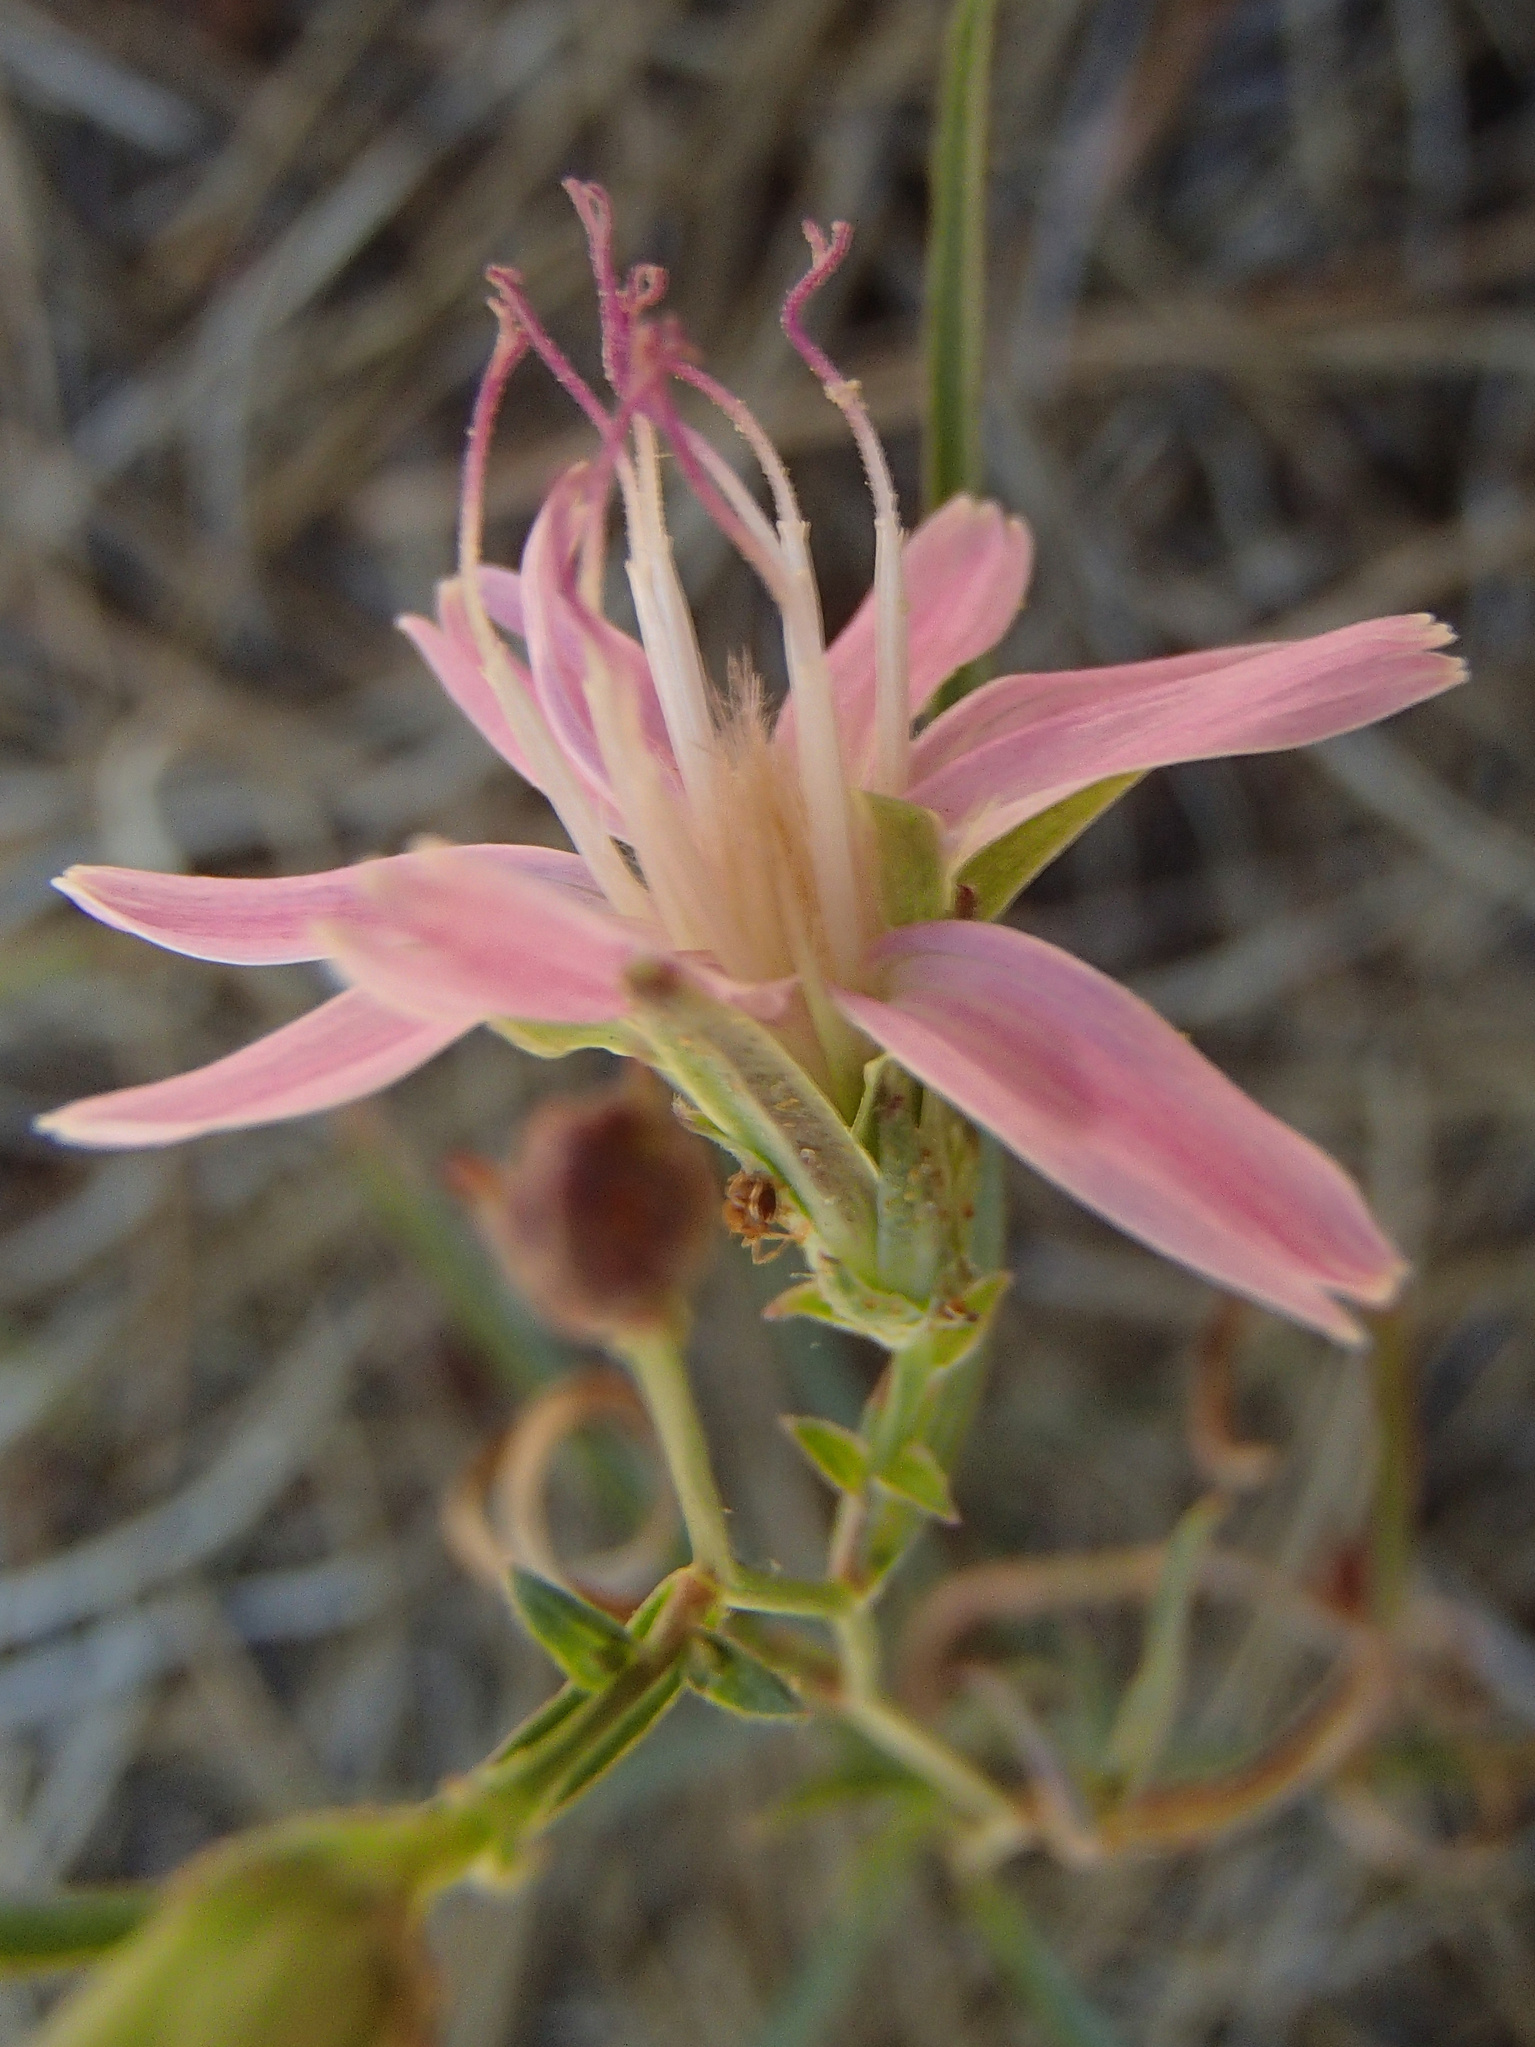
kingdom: Plantae
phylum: Tracheophyta
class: Magnoliopsida
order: Asterales
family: Asteraceae
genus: Stephanomeria
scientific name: Stephanomeria lactucina
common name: Large-flowered wirelettuce
